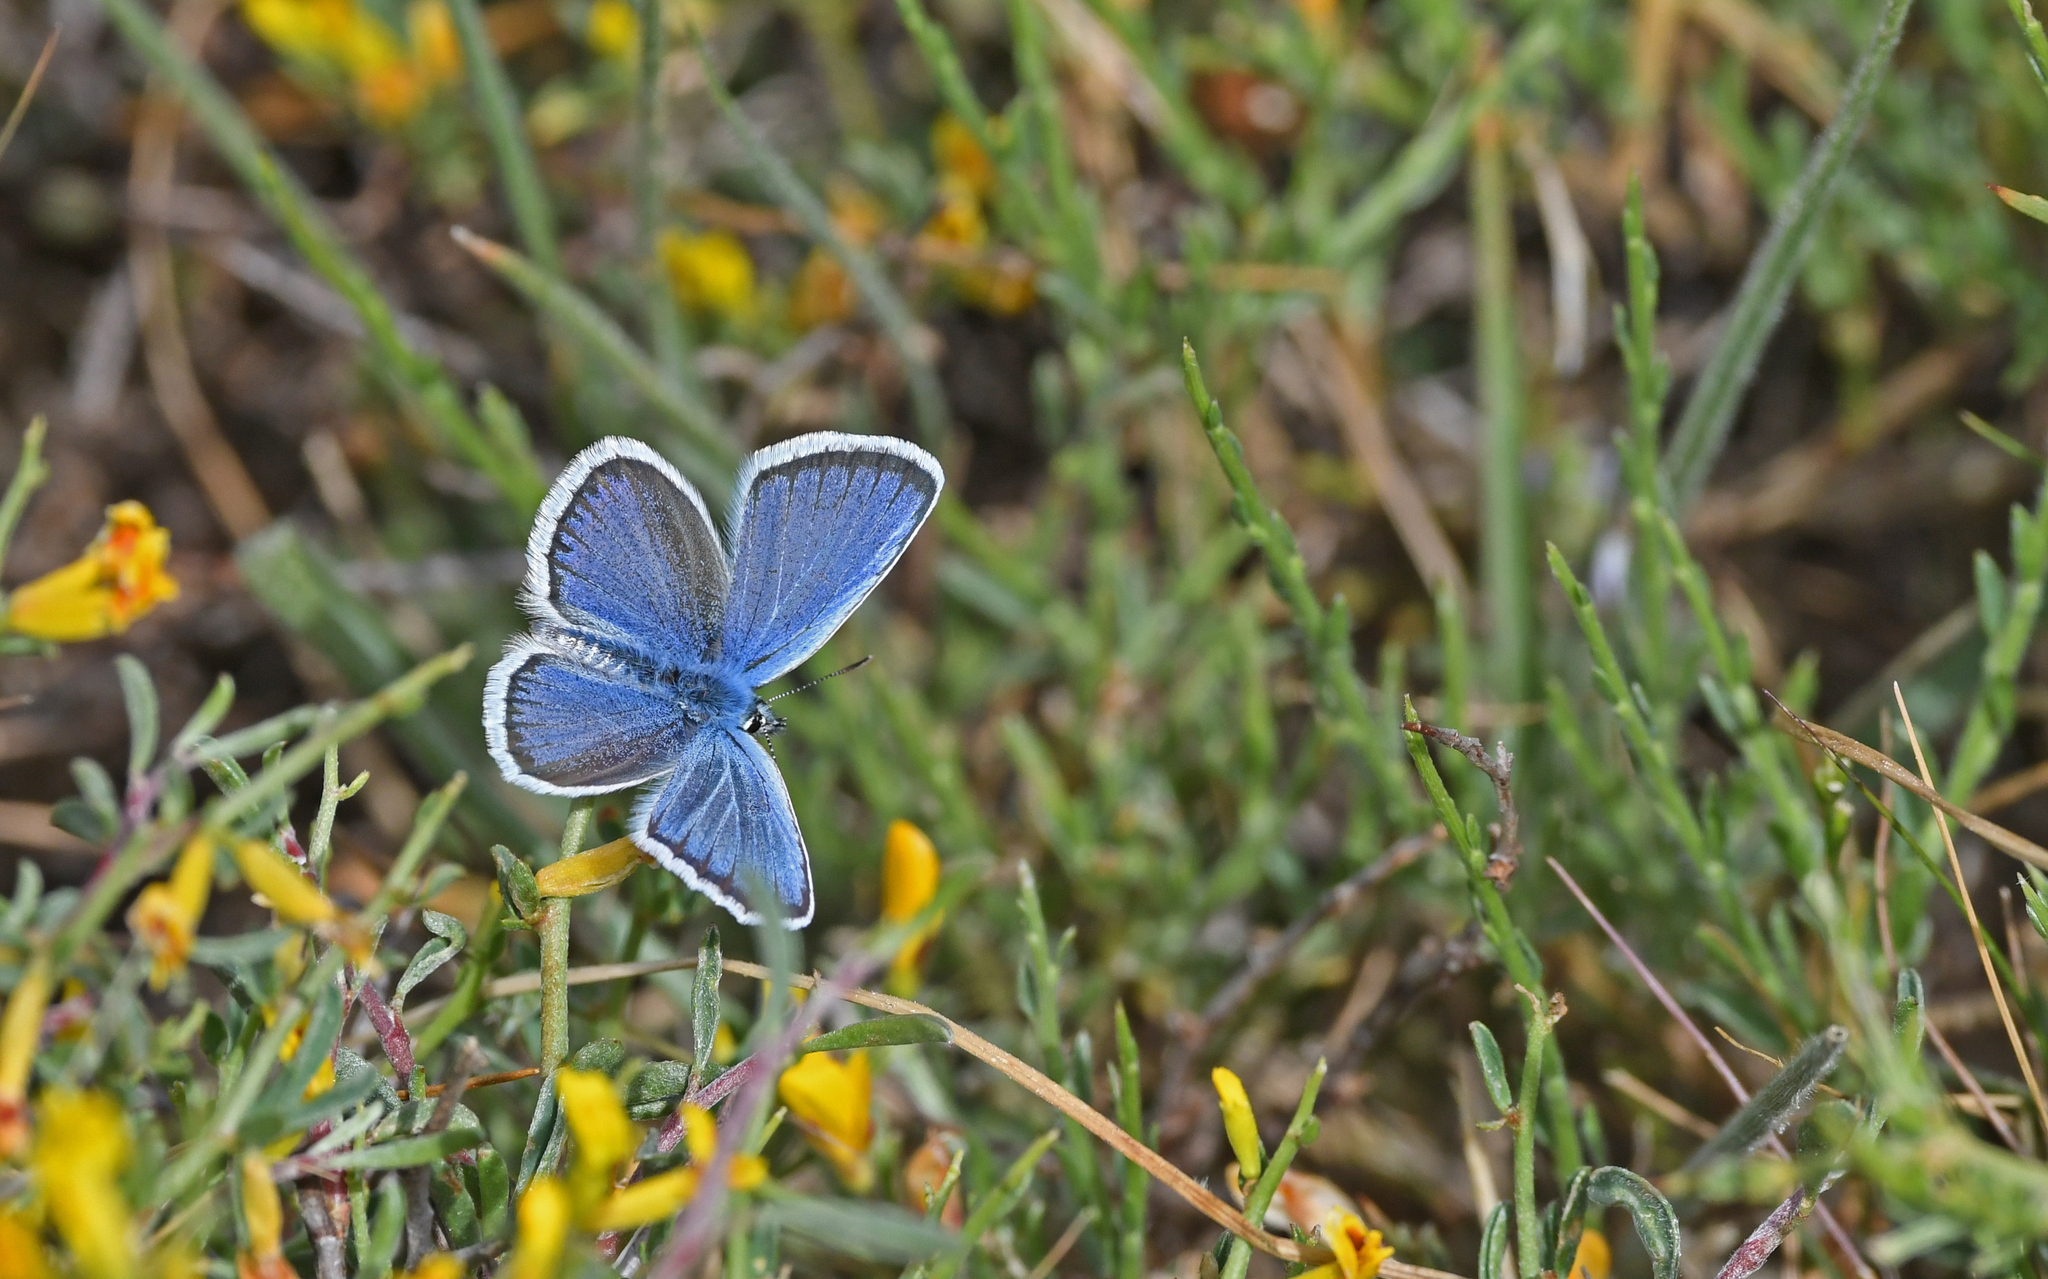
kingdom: Animalia
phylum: Arthropoda
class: Insecta
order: Lepidoptera
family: Lycaenidae
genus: Plebejus
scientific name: Plebejus argus
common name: Silver-studded blue
